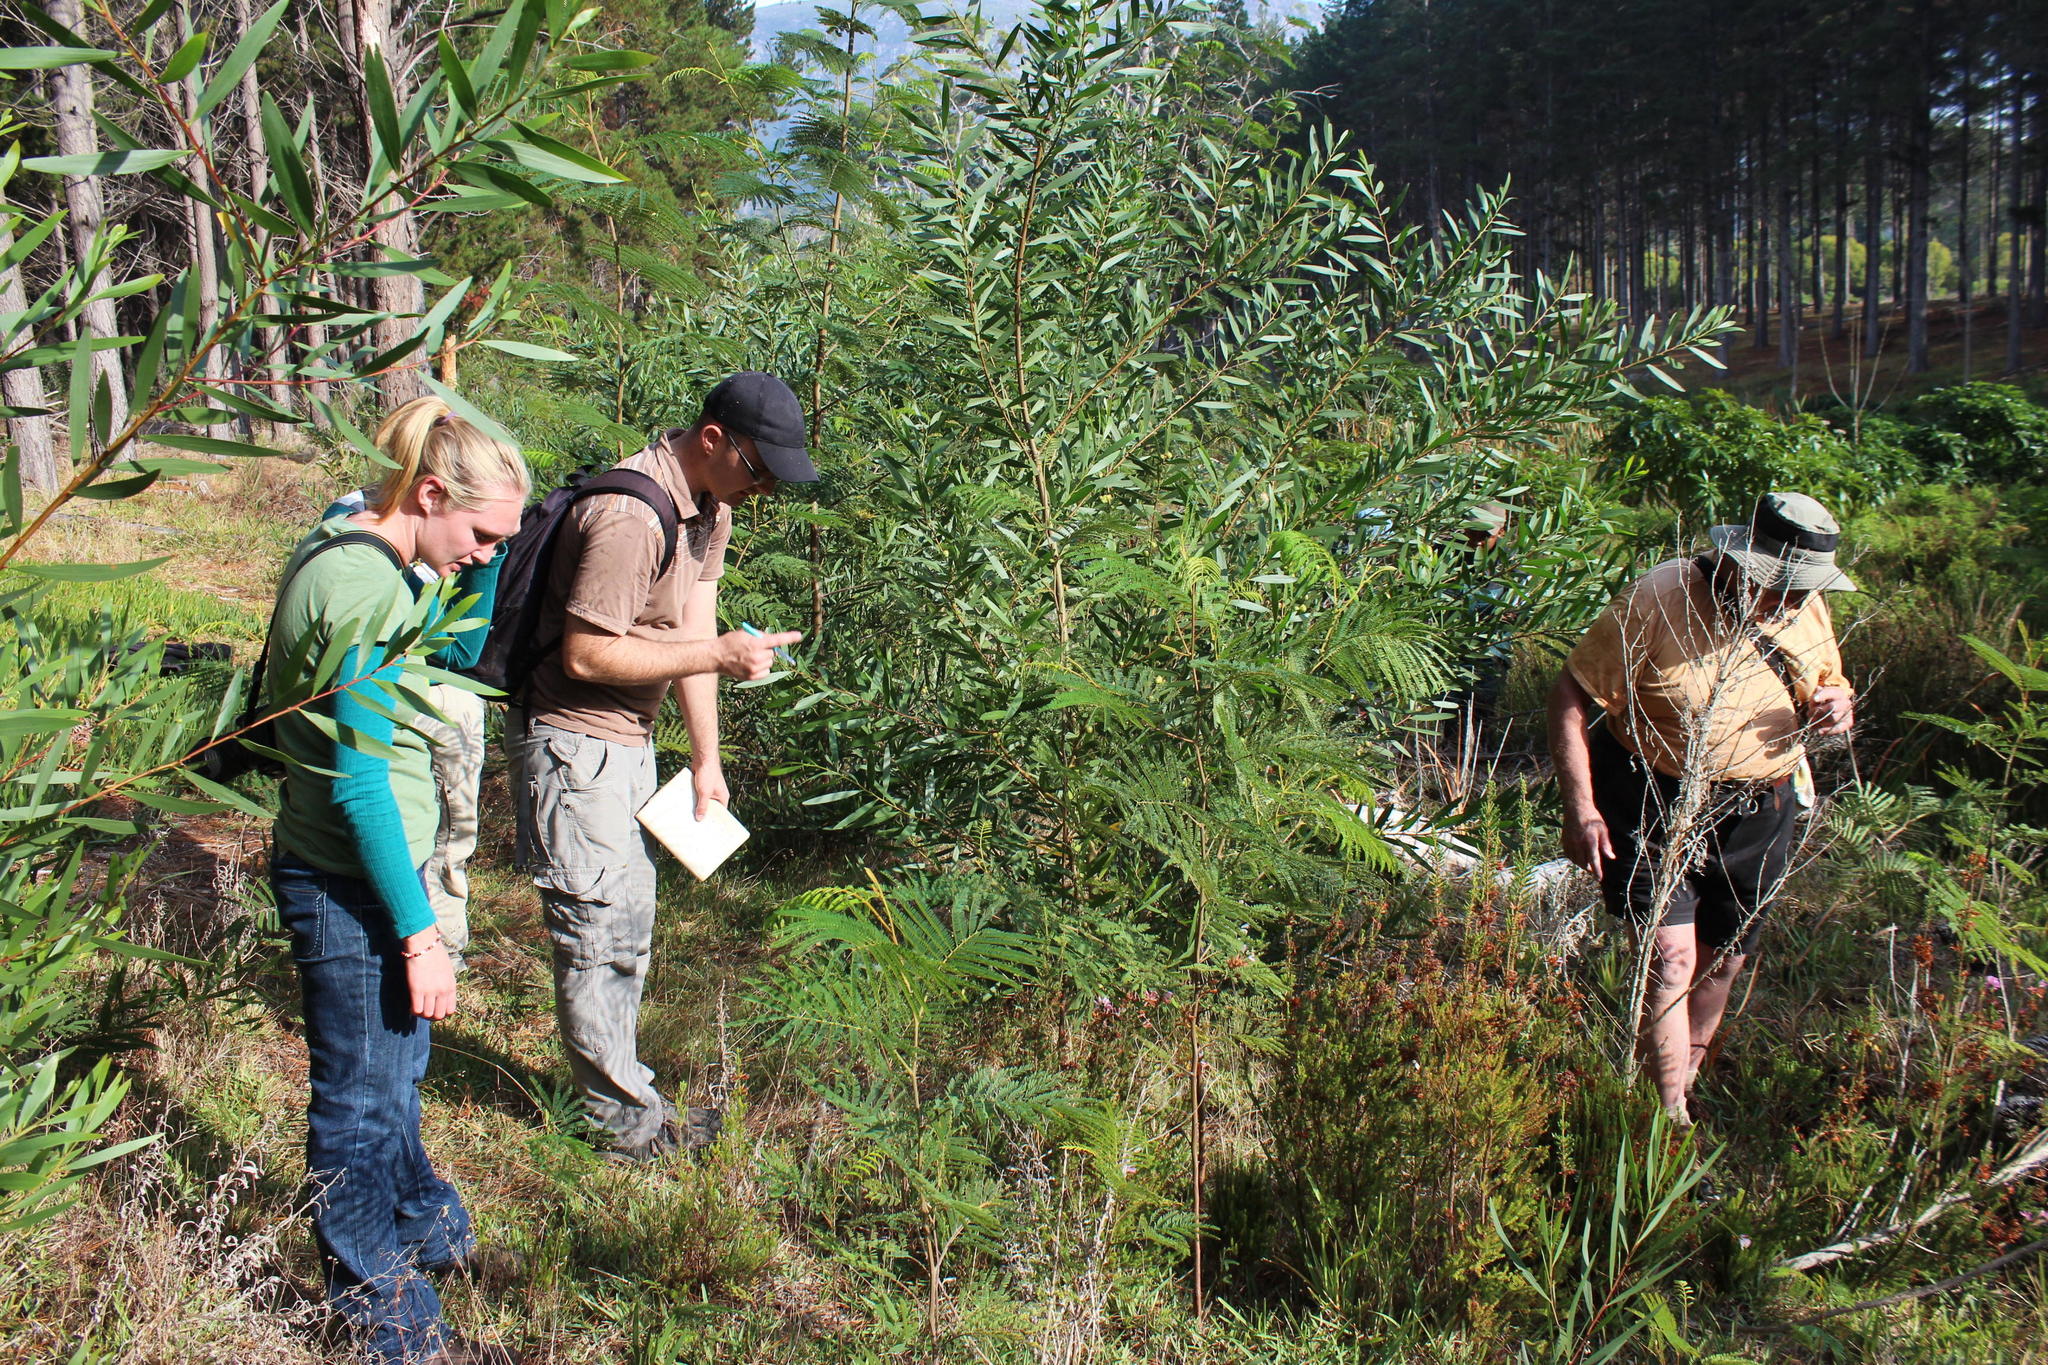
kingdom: Plantae
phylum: Tracheophyta
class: Magnoliopsida
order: Fabales
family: Fabaceae
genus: Acacia
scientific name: Acacia longifolia
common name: Sydney golden wattle
